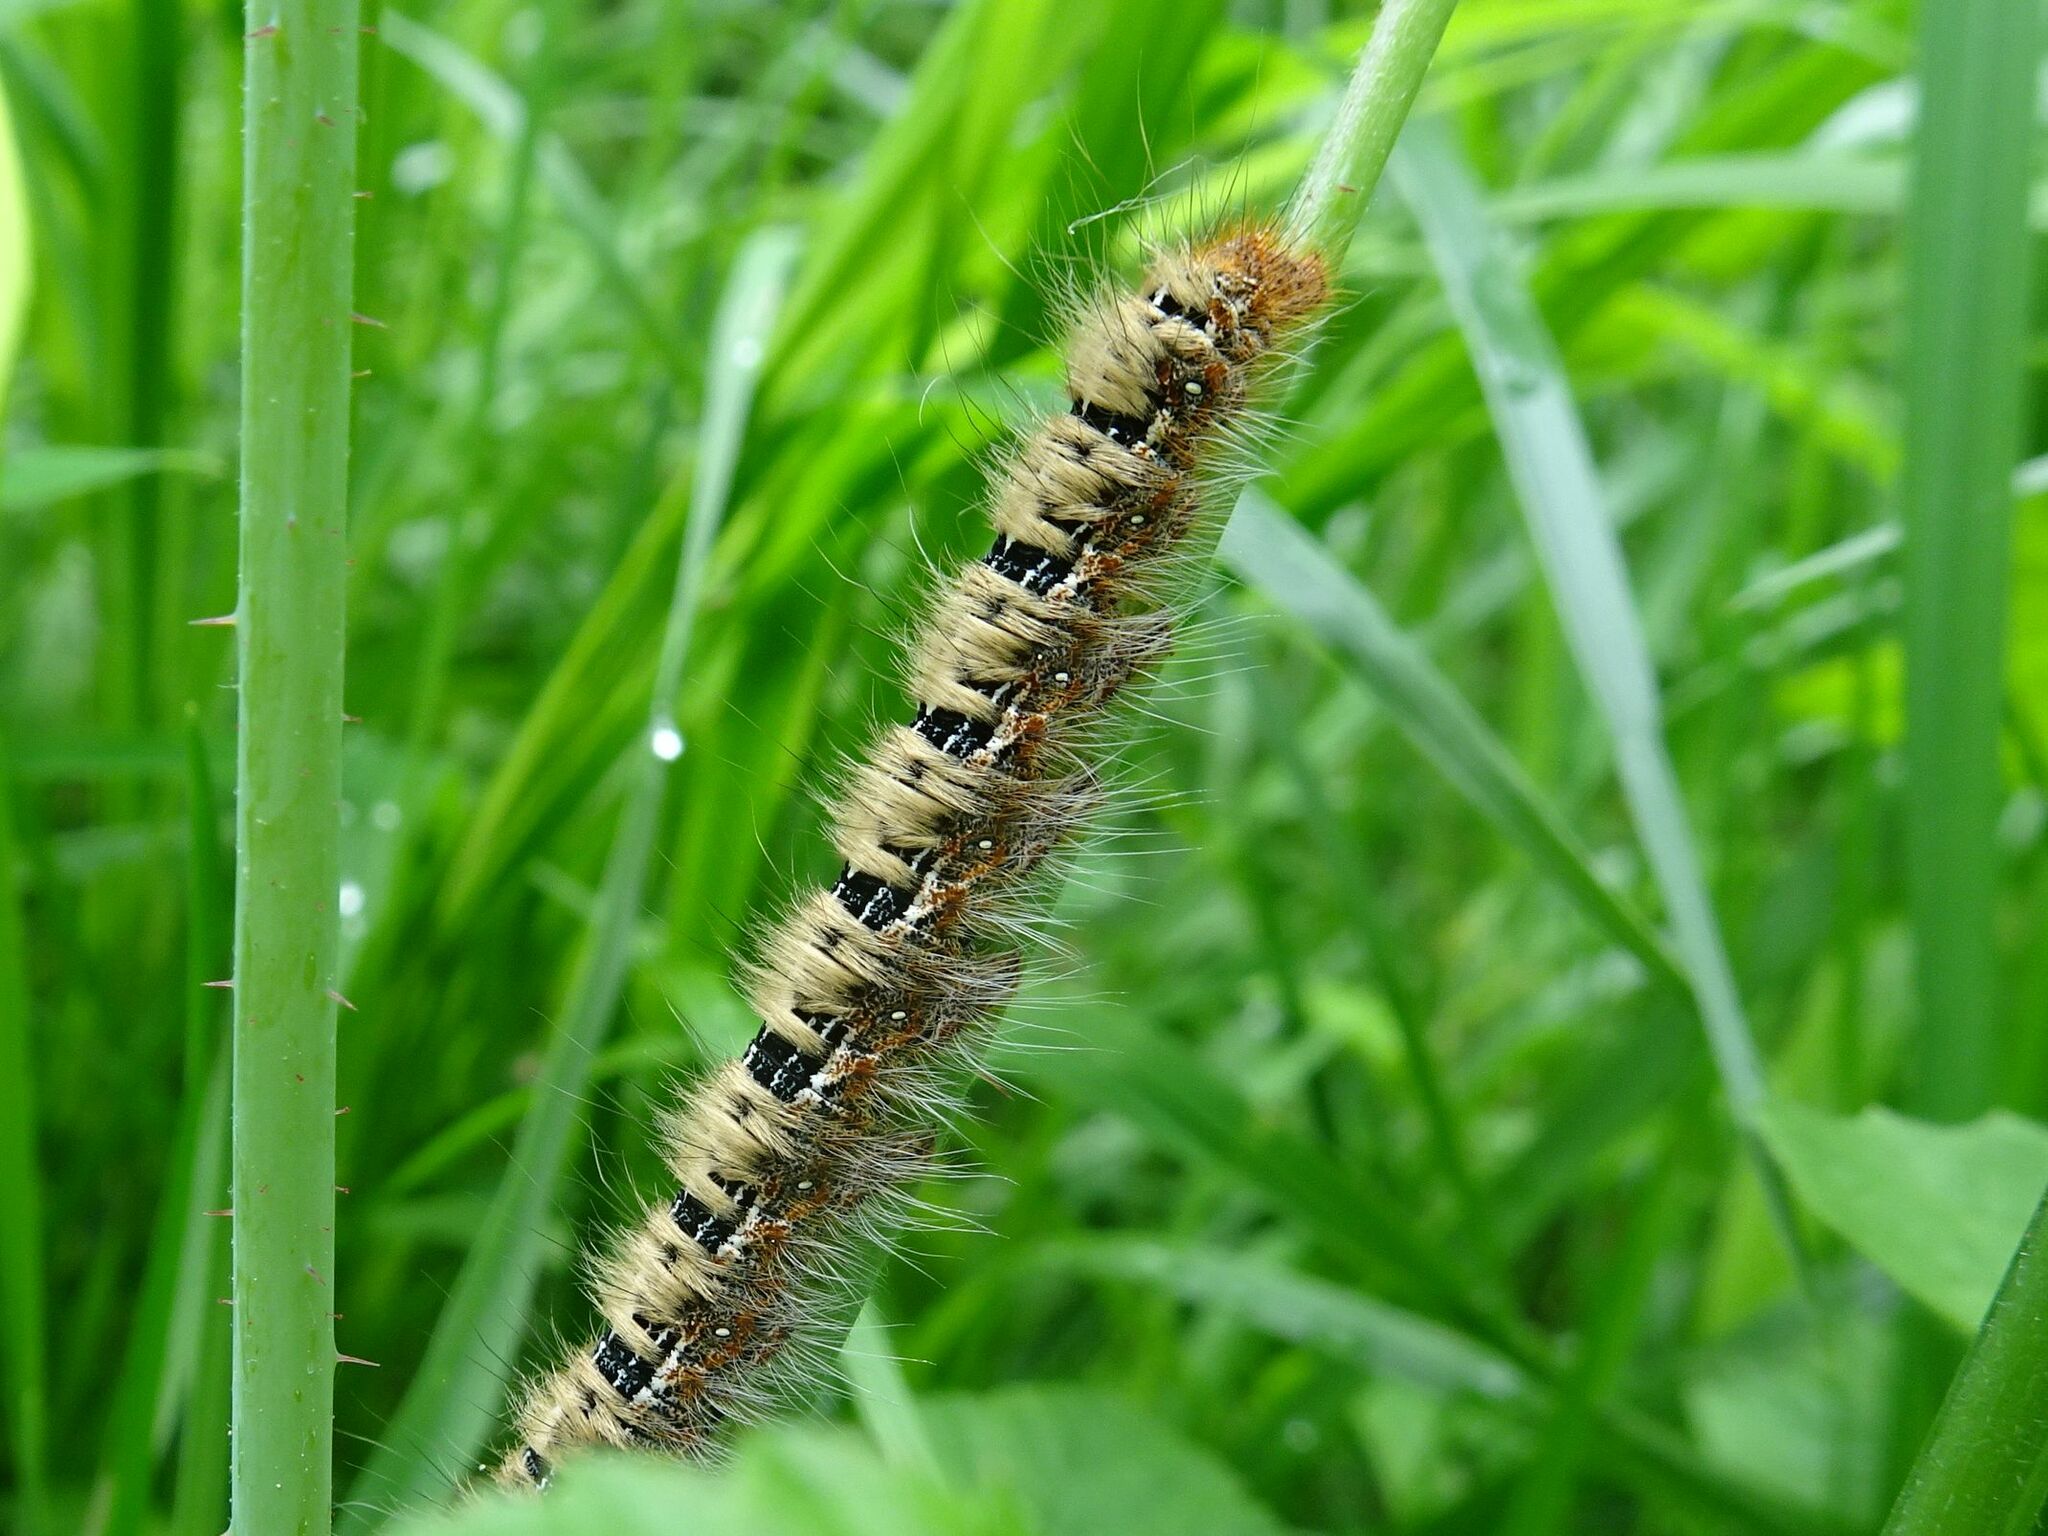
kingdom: Animalia
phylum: Arthropoda
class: Insecta
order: Lepidoptera
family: Lasiocampidae
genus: Lasiocampa
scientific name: Lasiocampa quercus
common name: Oak eggar
